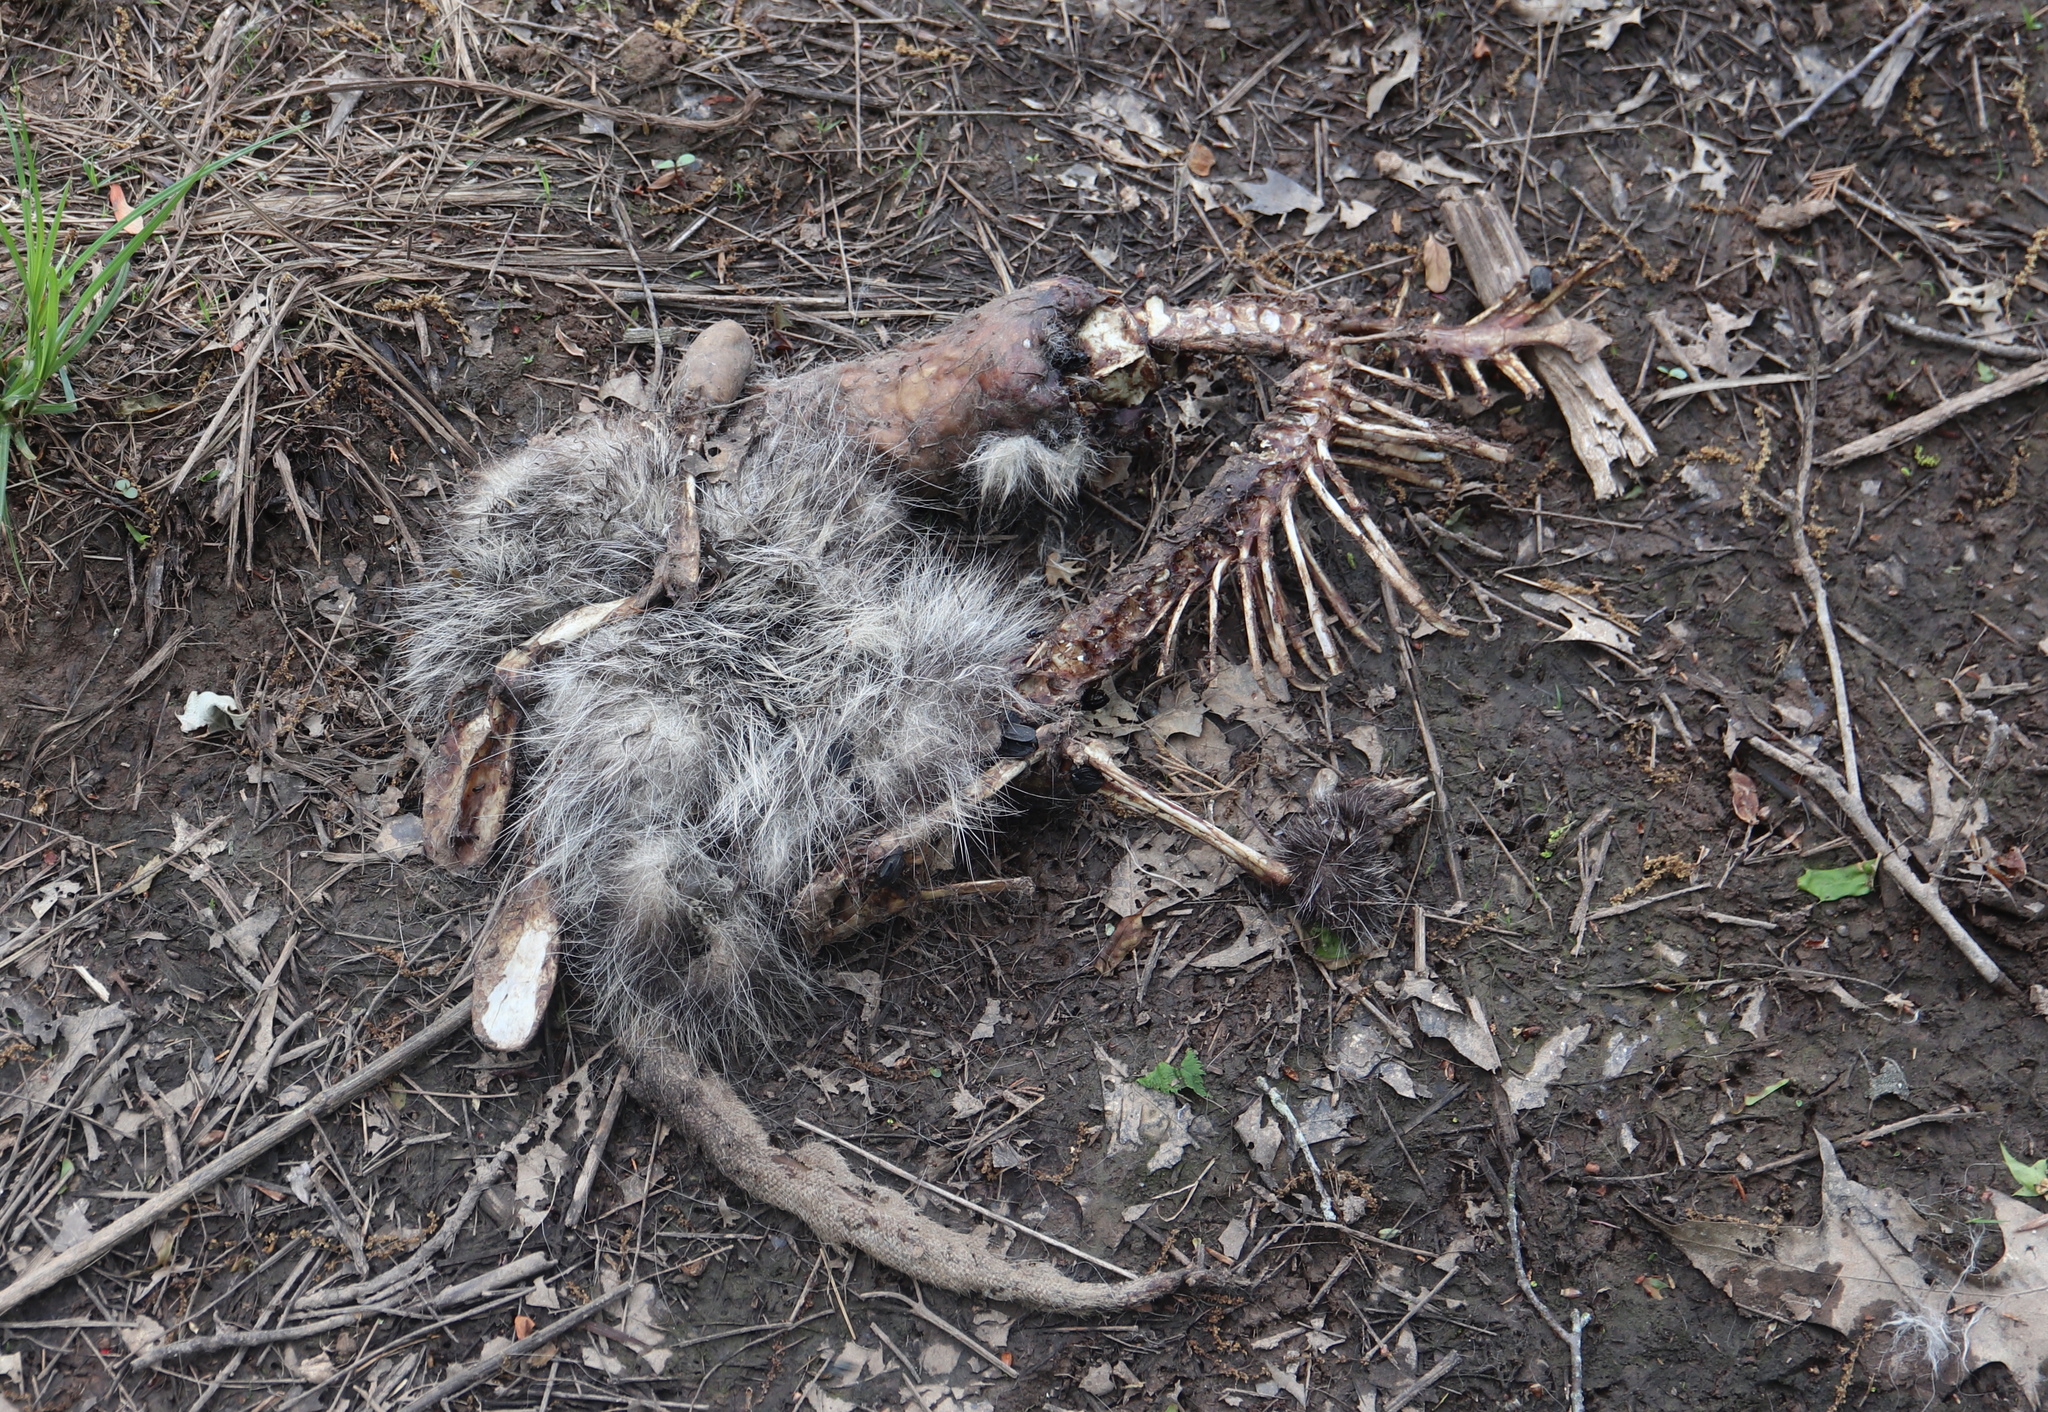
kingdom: Animalia
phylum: Chordata
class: Mammalia
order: Didelphimorphia
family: Didelphidae
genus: Didelphis
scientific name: Didelphis virginiana
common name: Virginia opossum
